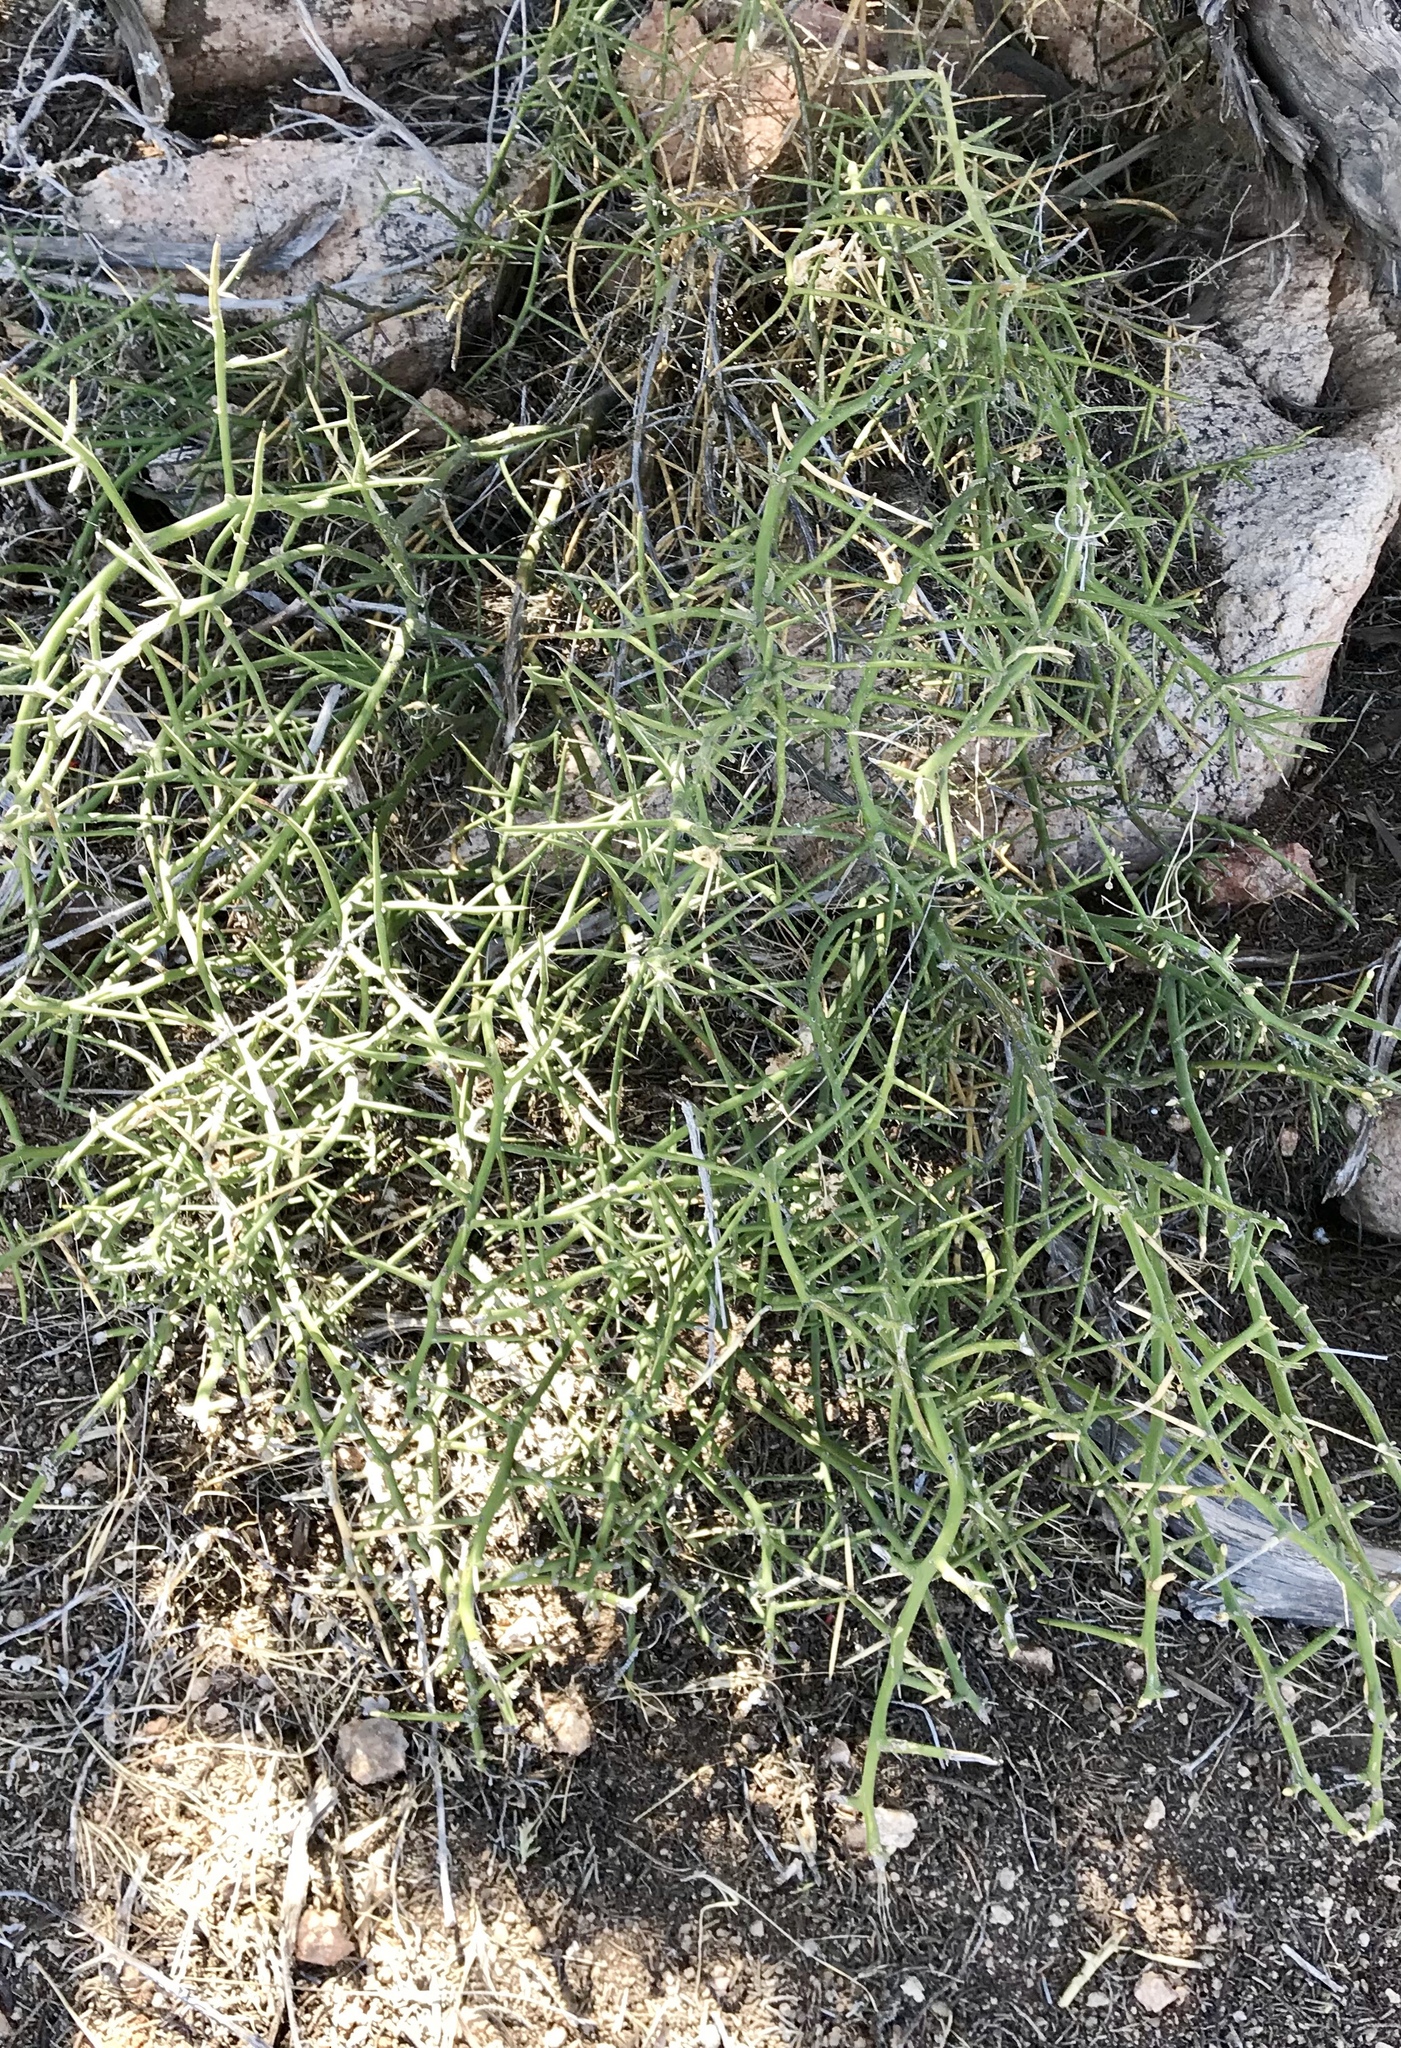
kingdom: Plantae
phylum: Tracheophyta
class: Magnoliopsida
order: Brassicales
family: Koeberliniaceae
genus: Koeberlinia
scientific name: Koeberlinia spinosa
